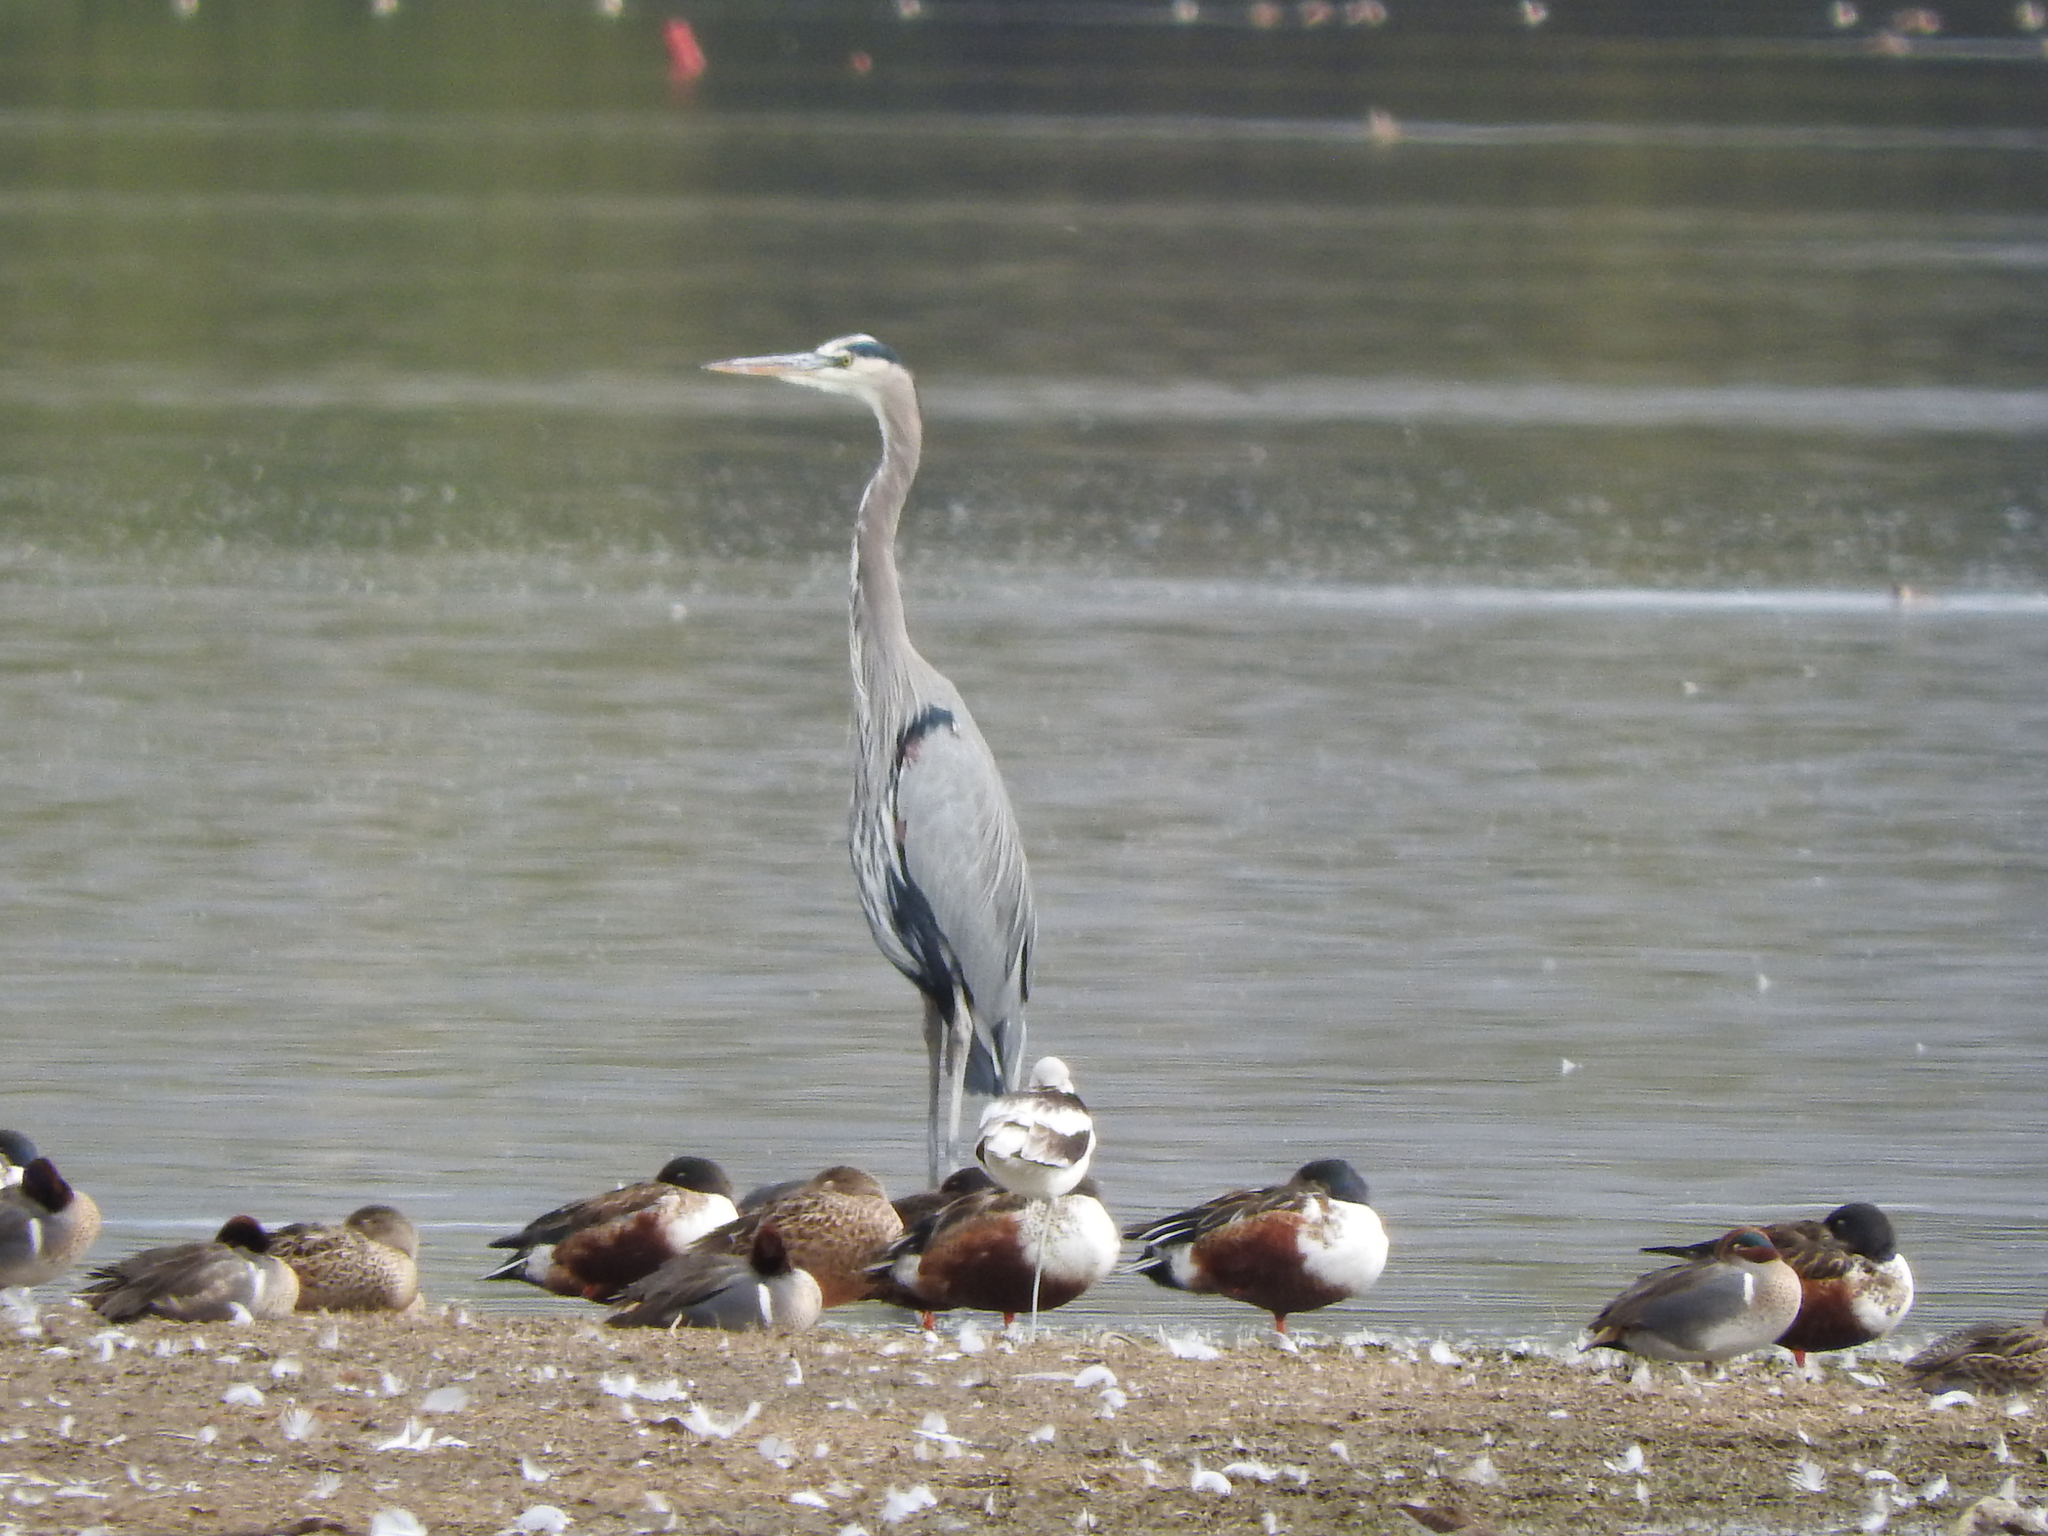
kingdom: Animalia
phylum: Chordata
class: Aves
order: Pelecaniformes
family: Ardeidae
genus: Ardea
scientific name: Ardea herodias
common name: Great blue heron
